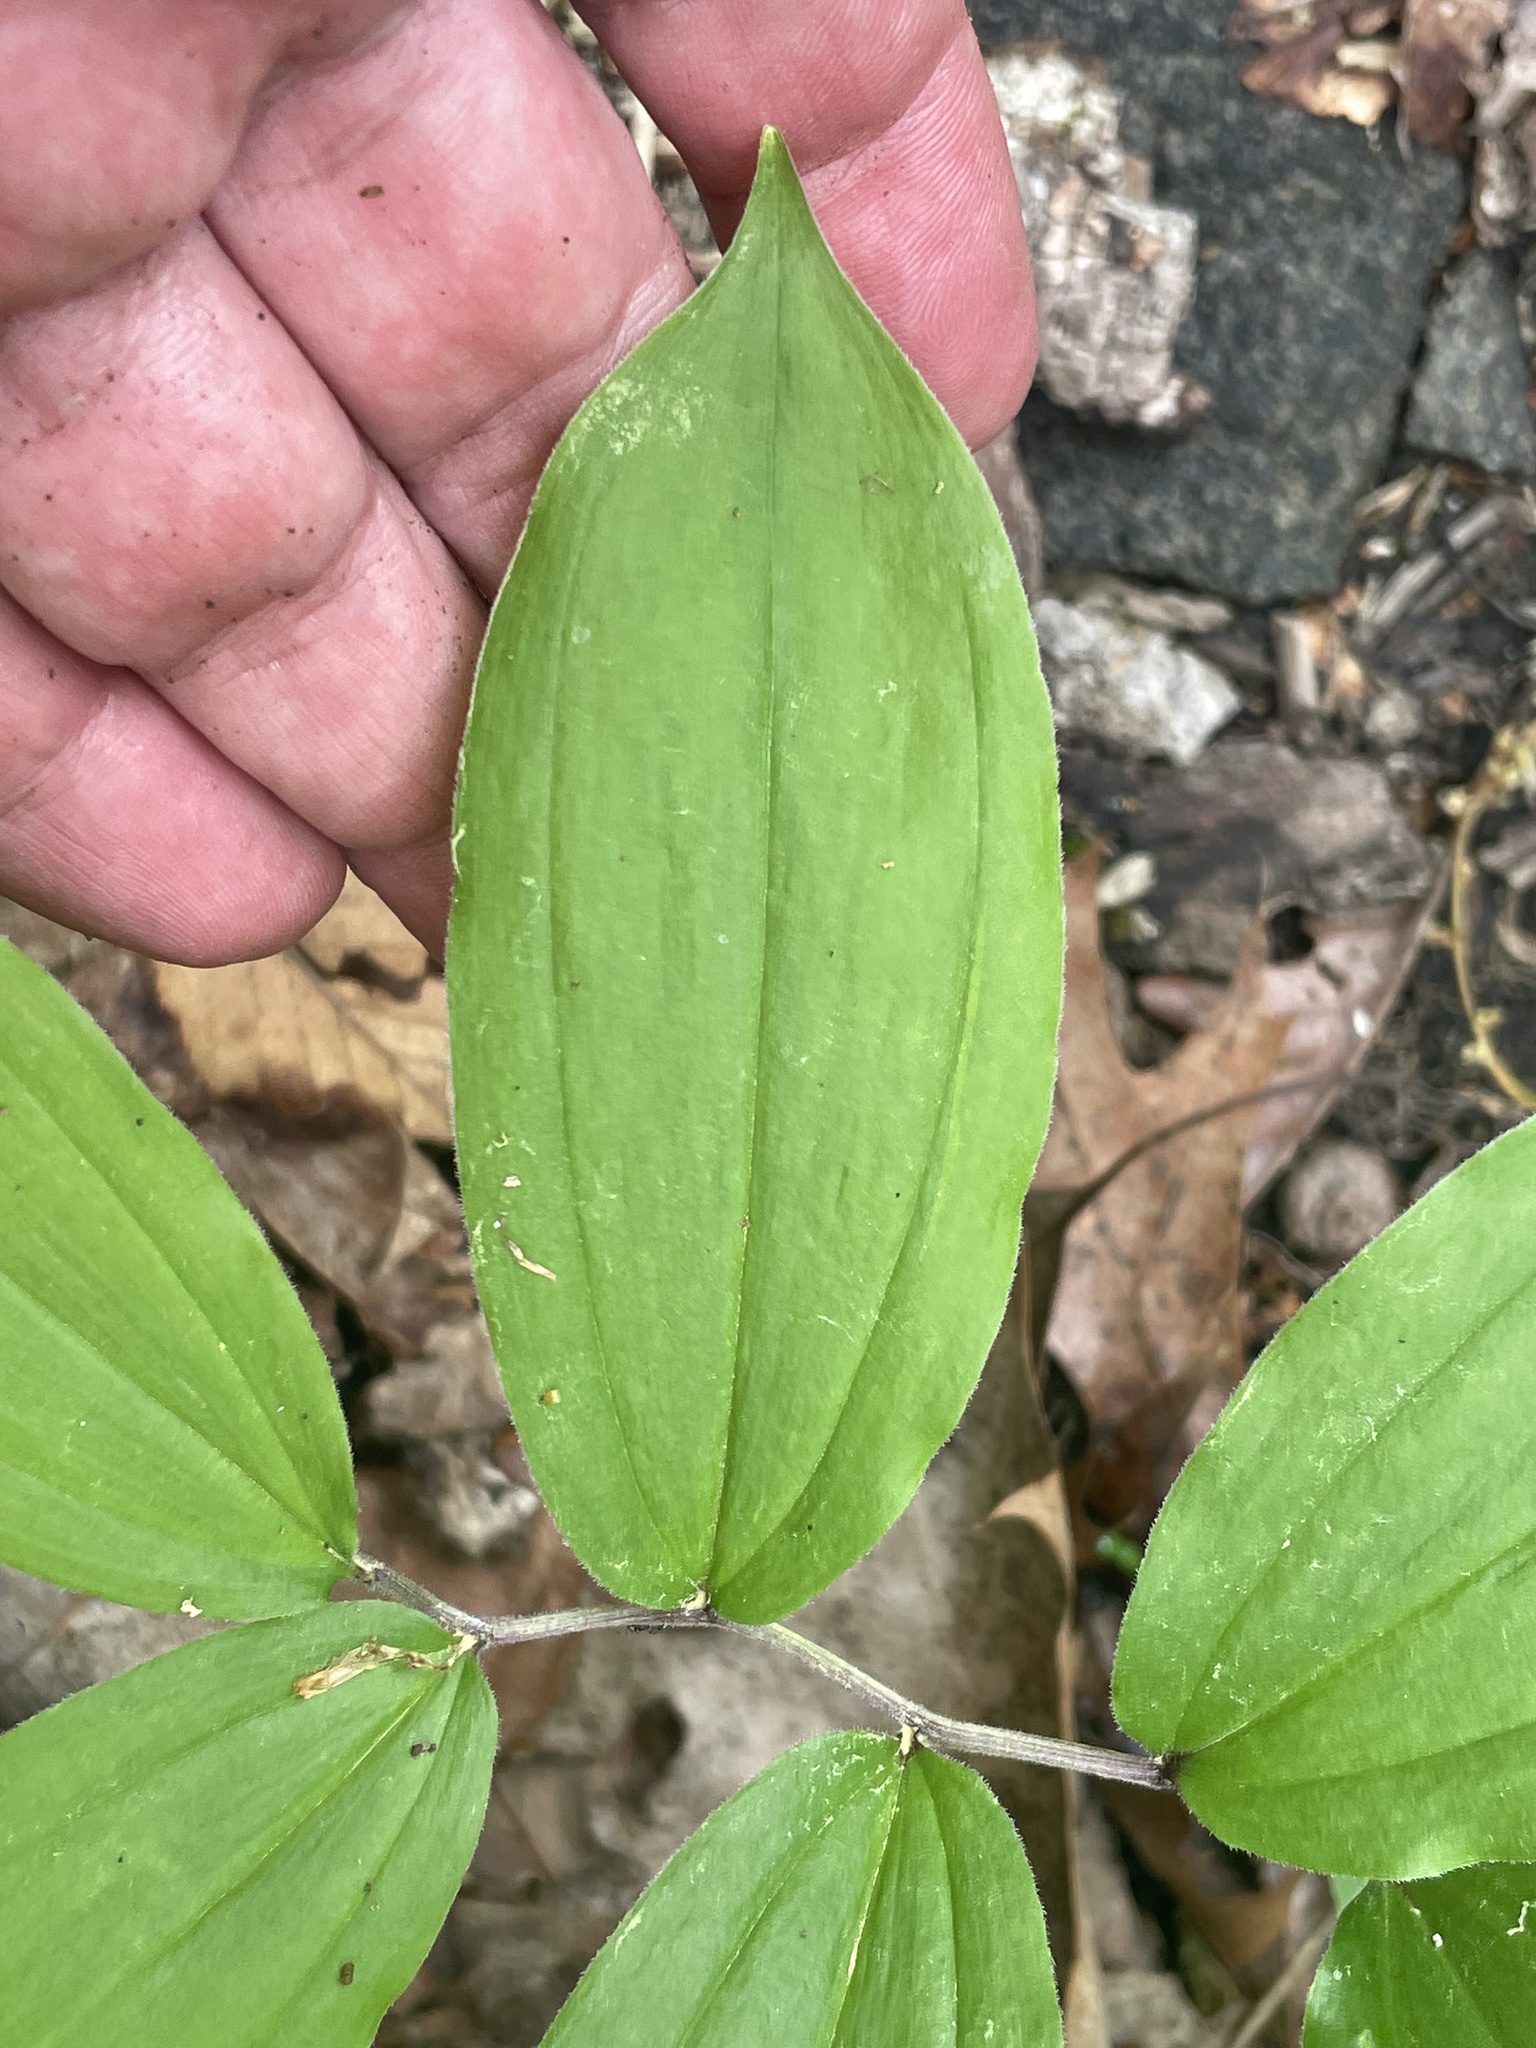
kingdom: Plantae
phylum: Tracheophyta
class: Liliopsida
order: Asparagales
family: Asparagaceae
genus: Maianthemum
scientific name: Maianthemum racemosum
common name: False spikenard
